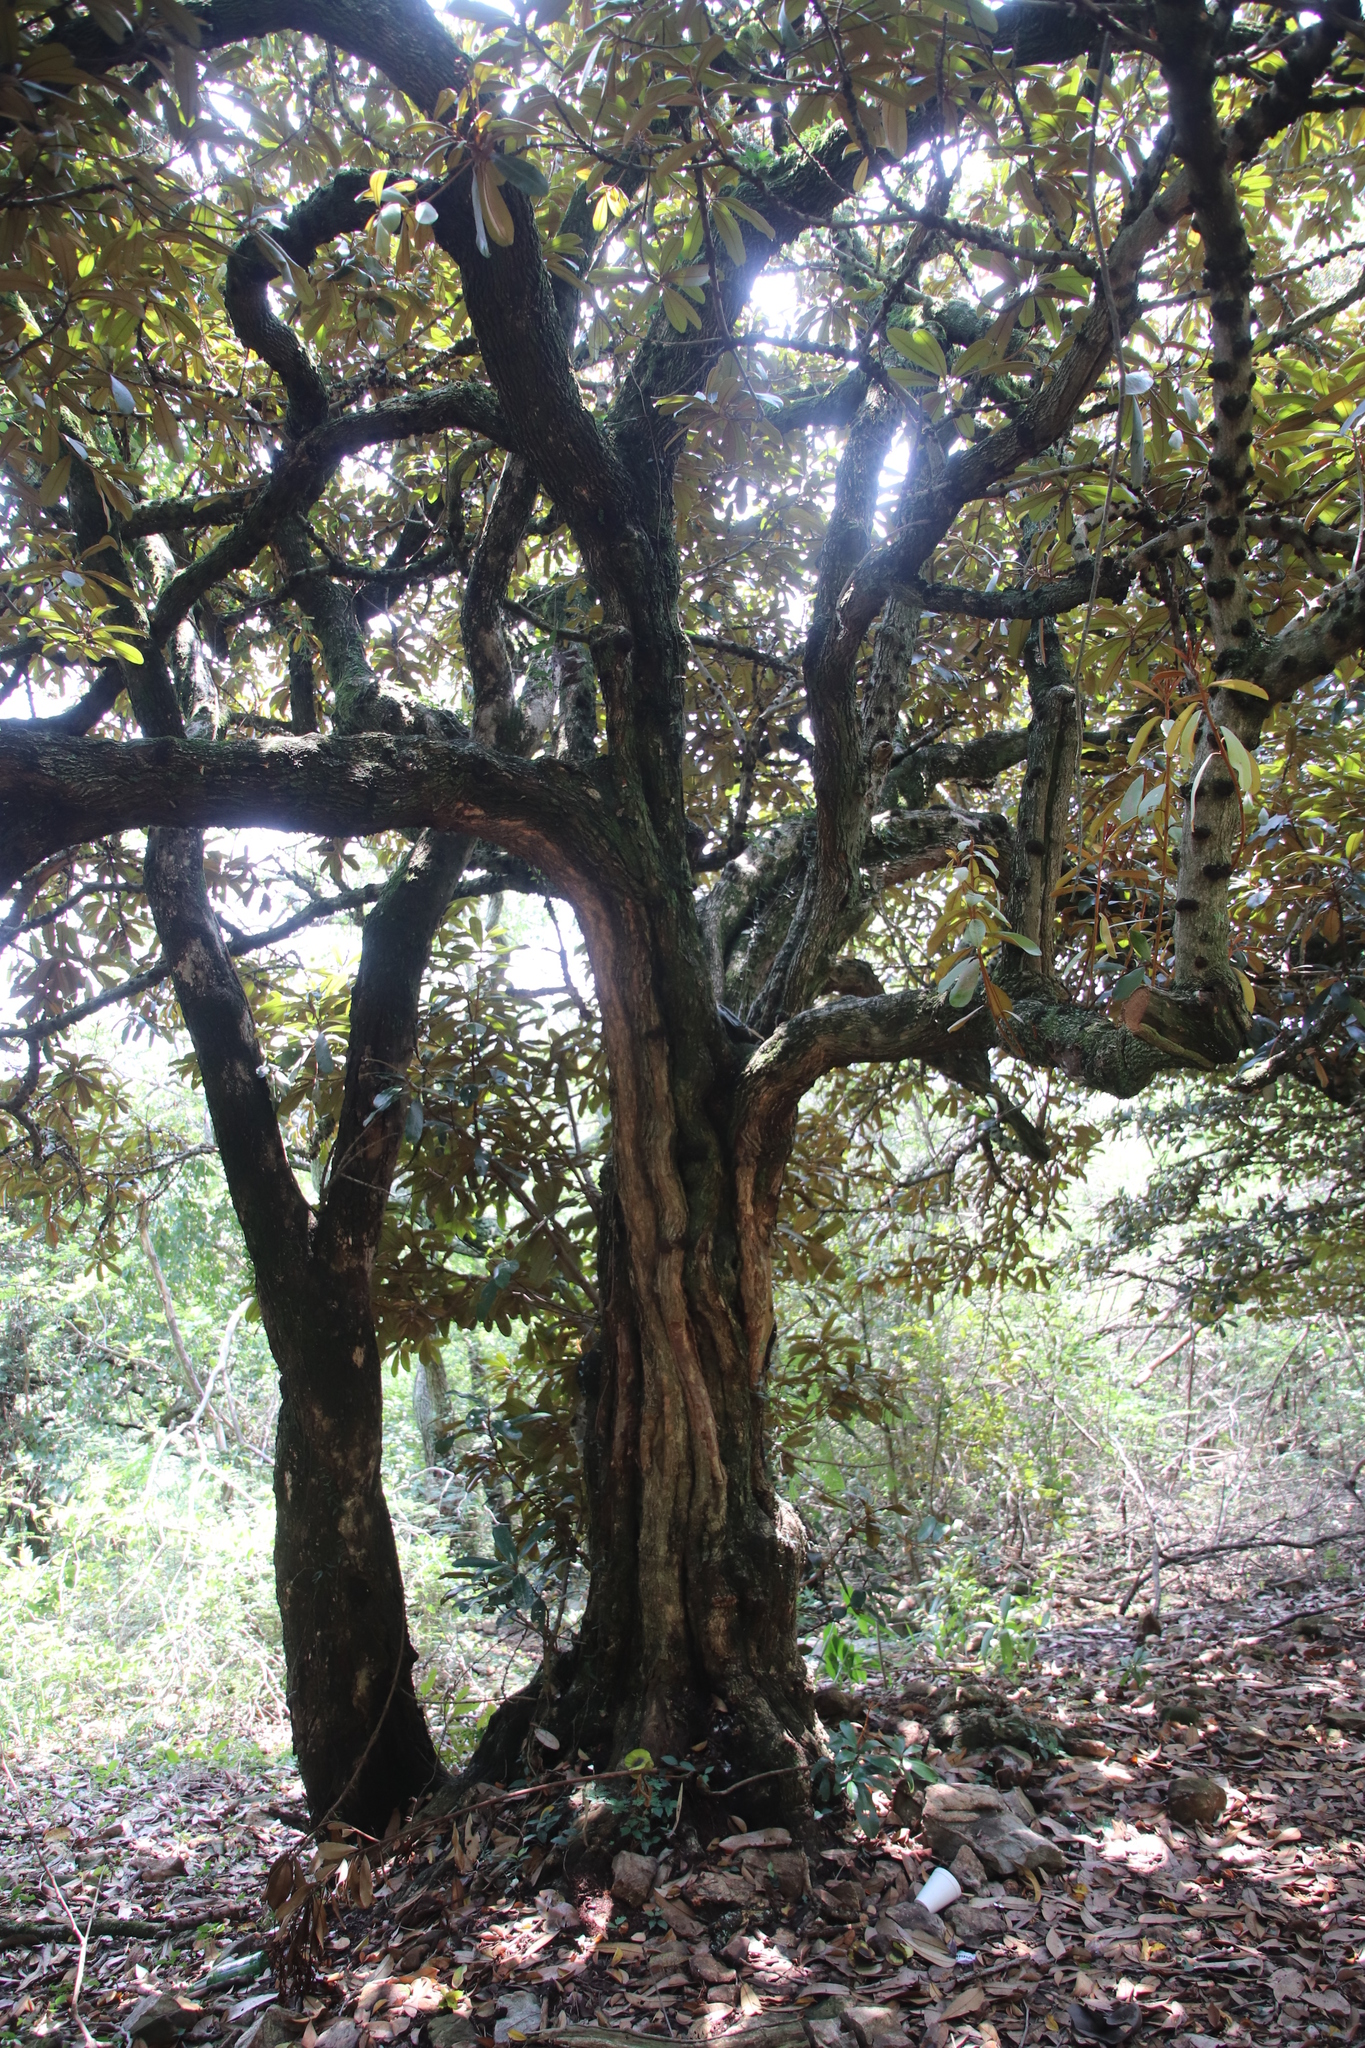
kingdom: Plantae
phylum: Tracheophyta
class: Magnoliopsida
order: Ericales
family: Sapotaceae
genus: Englerophytum
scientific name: Englerophytum magalismontanum
